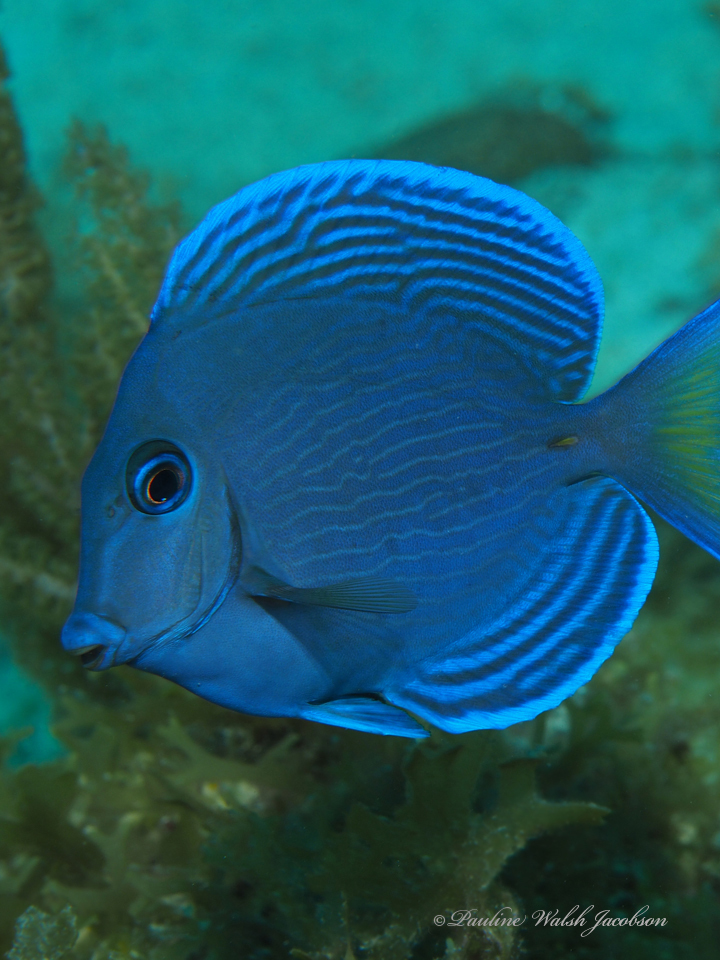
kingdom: Animalia
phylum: Chordata
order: Perciformes
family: Acanthuridae
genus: Acanthurus
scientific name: Acanthurus coeruleus
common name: Blue tang
